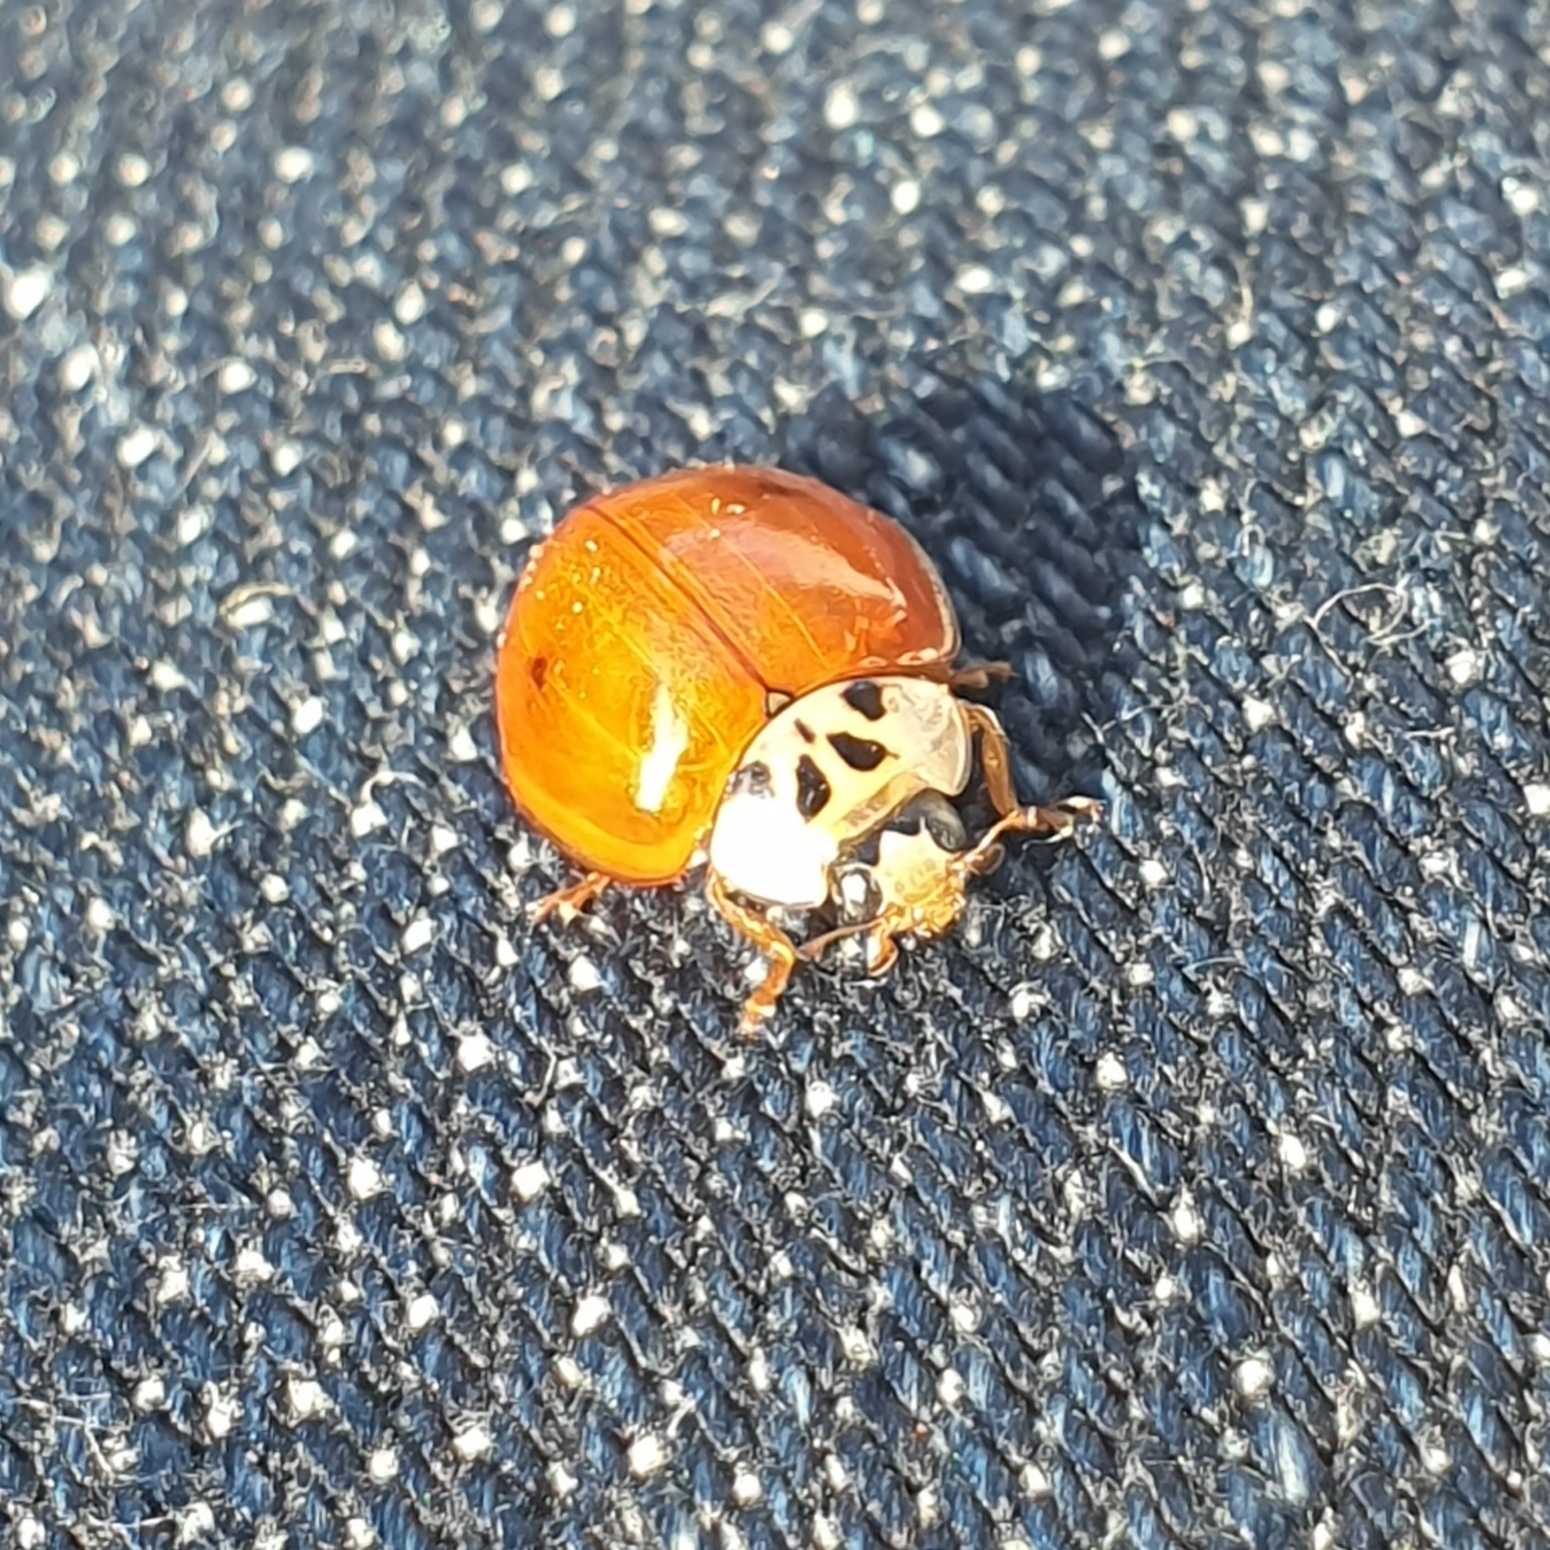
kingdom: Animalia
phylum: Arthropoda
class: Insecta
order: Coleoptera
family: Coccinellidae
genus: Harmonia
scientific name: Harmonia axyridis
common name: Harlequin ladybird
